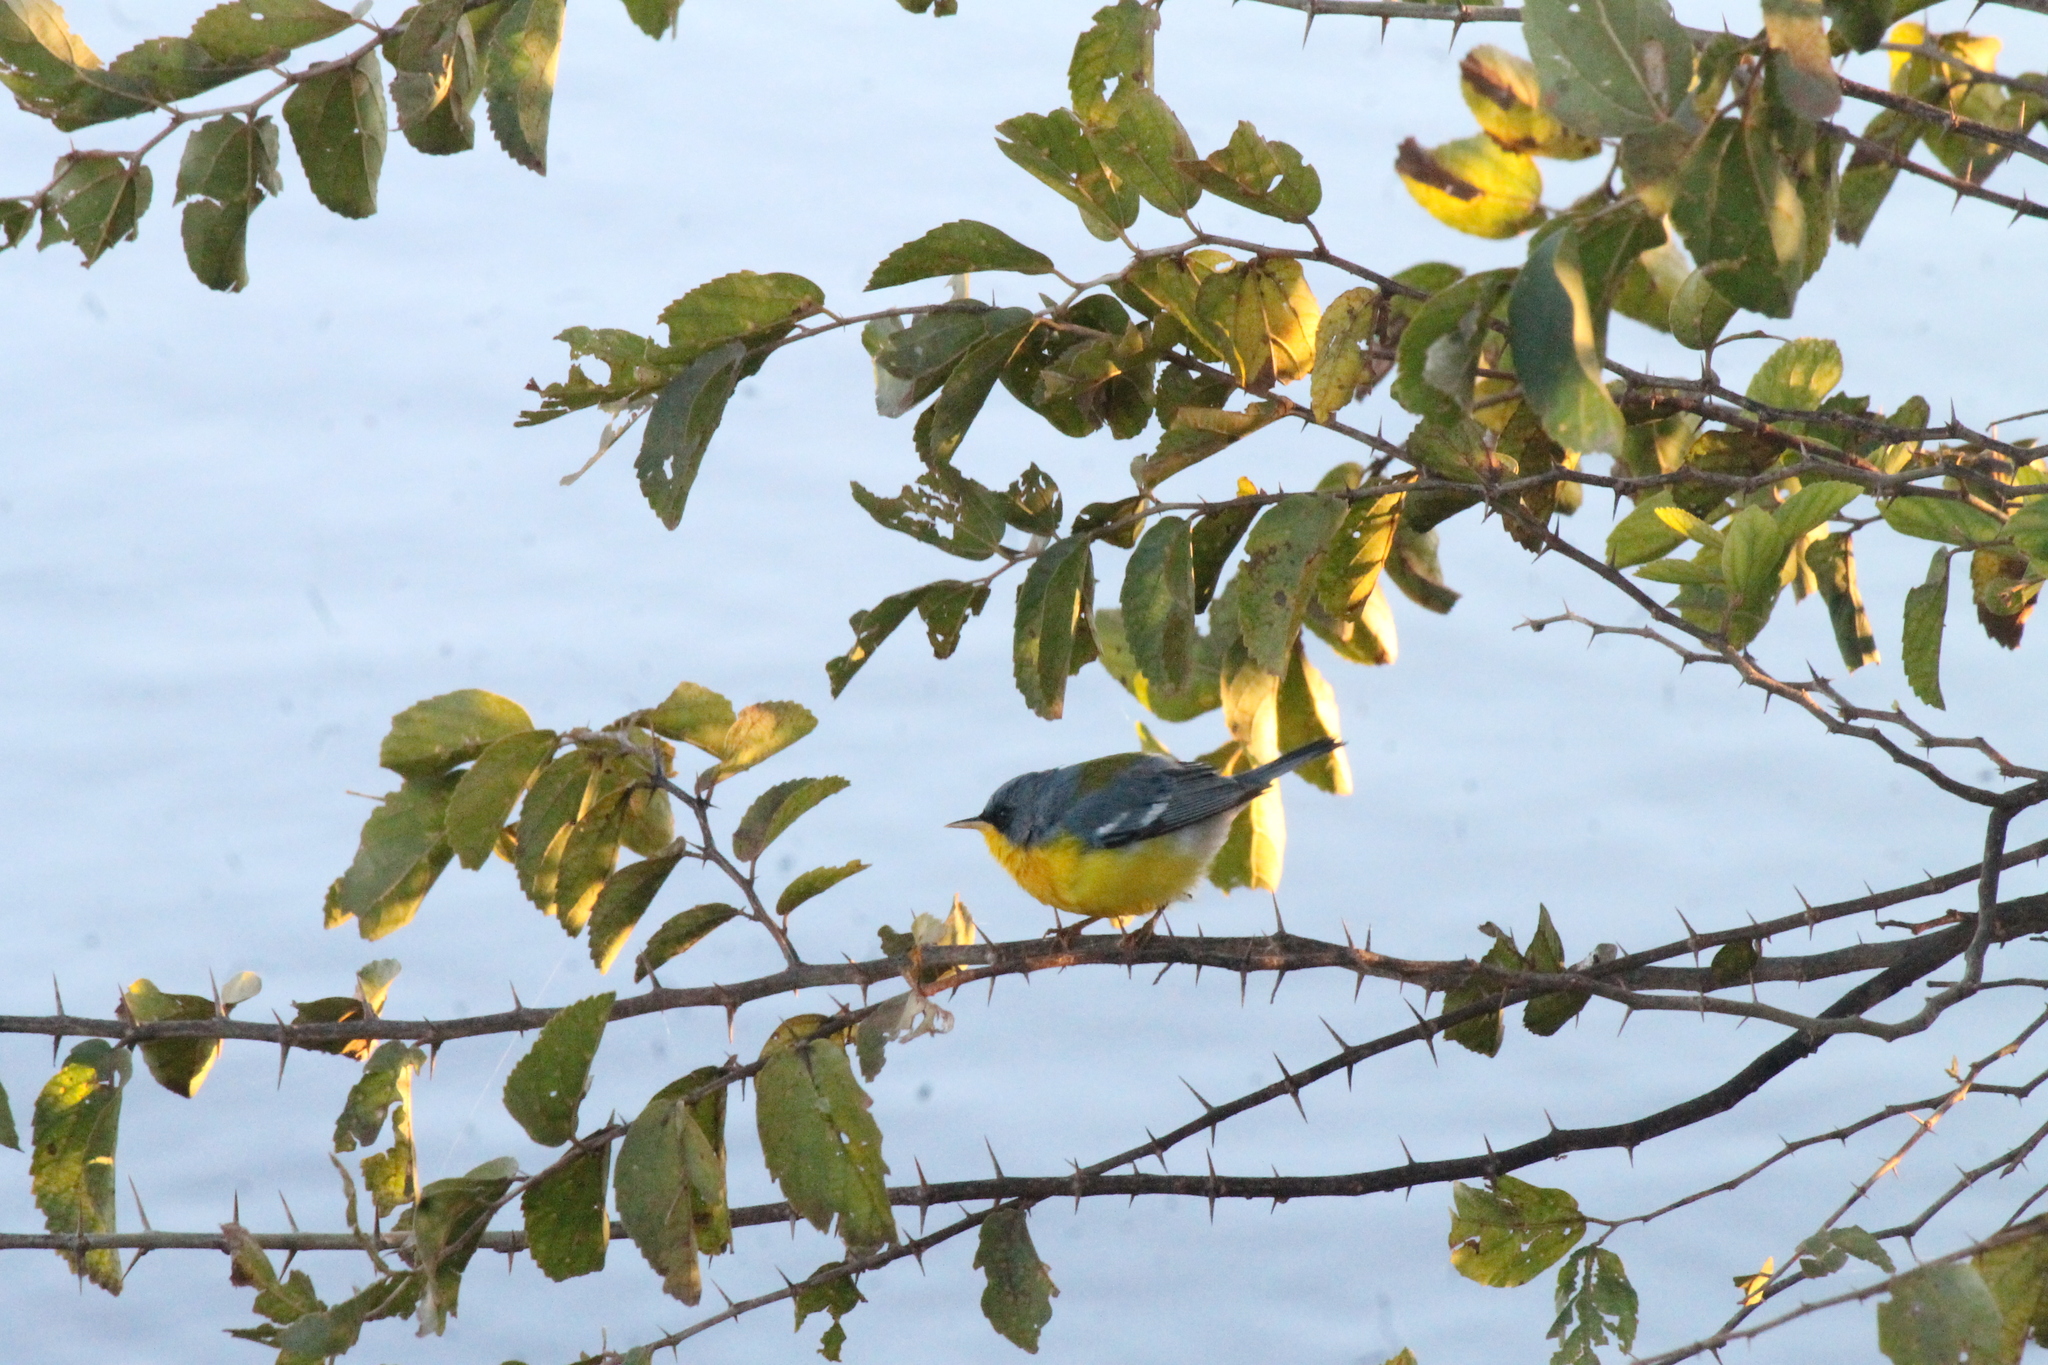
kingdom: Animalia
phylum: Chordata
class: Aves
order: Passeriformes
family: Parulidae
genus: Setophaga
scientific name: Setophaga pitiayumi
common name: Tropical parula
